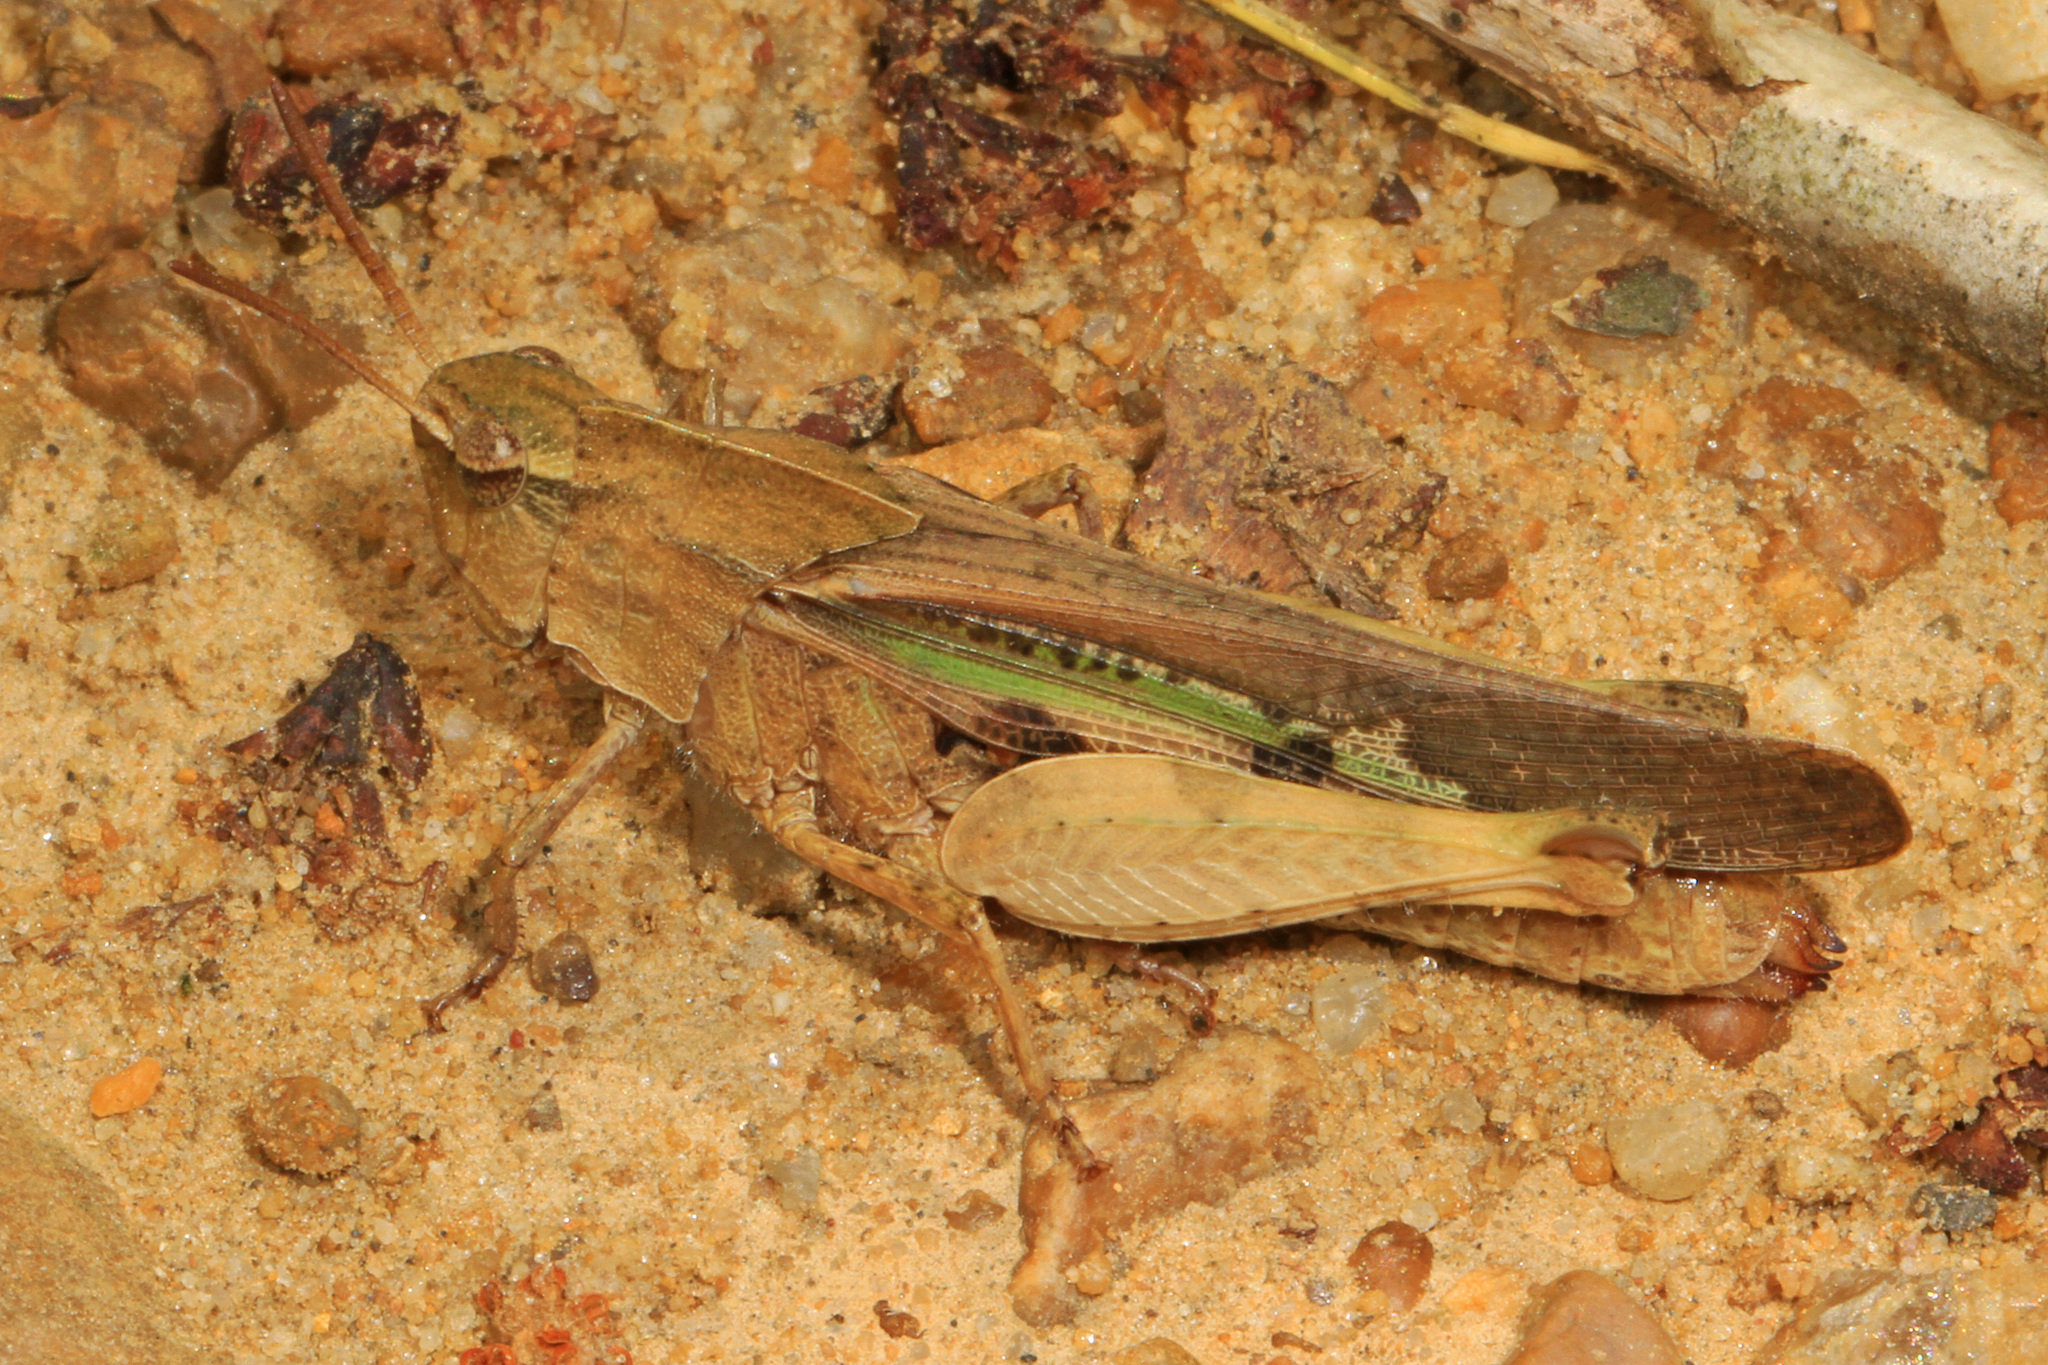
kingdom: Animalia
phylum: Arthropoda
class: Insecta
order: Orthoptera
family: Acrididae
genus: Chortophaga
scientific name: Chortophaga viridifasciata
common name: Green-striped grasshopper
